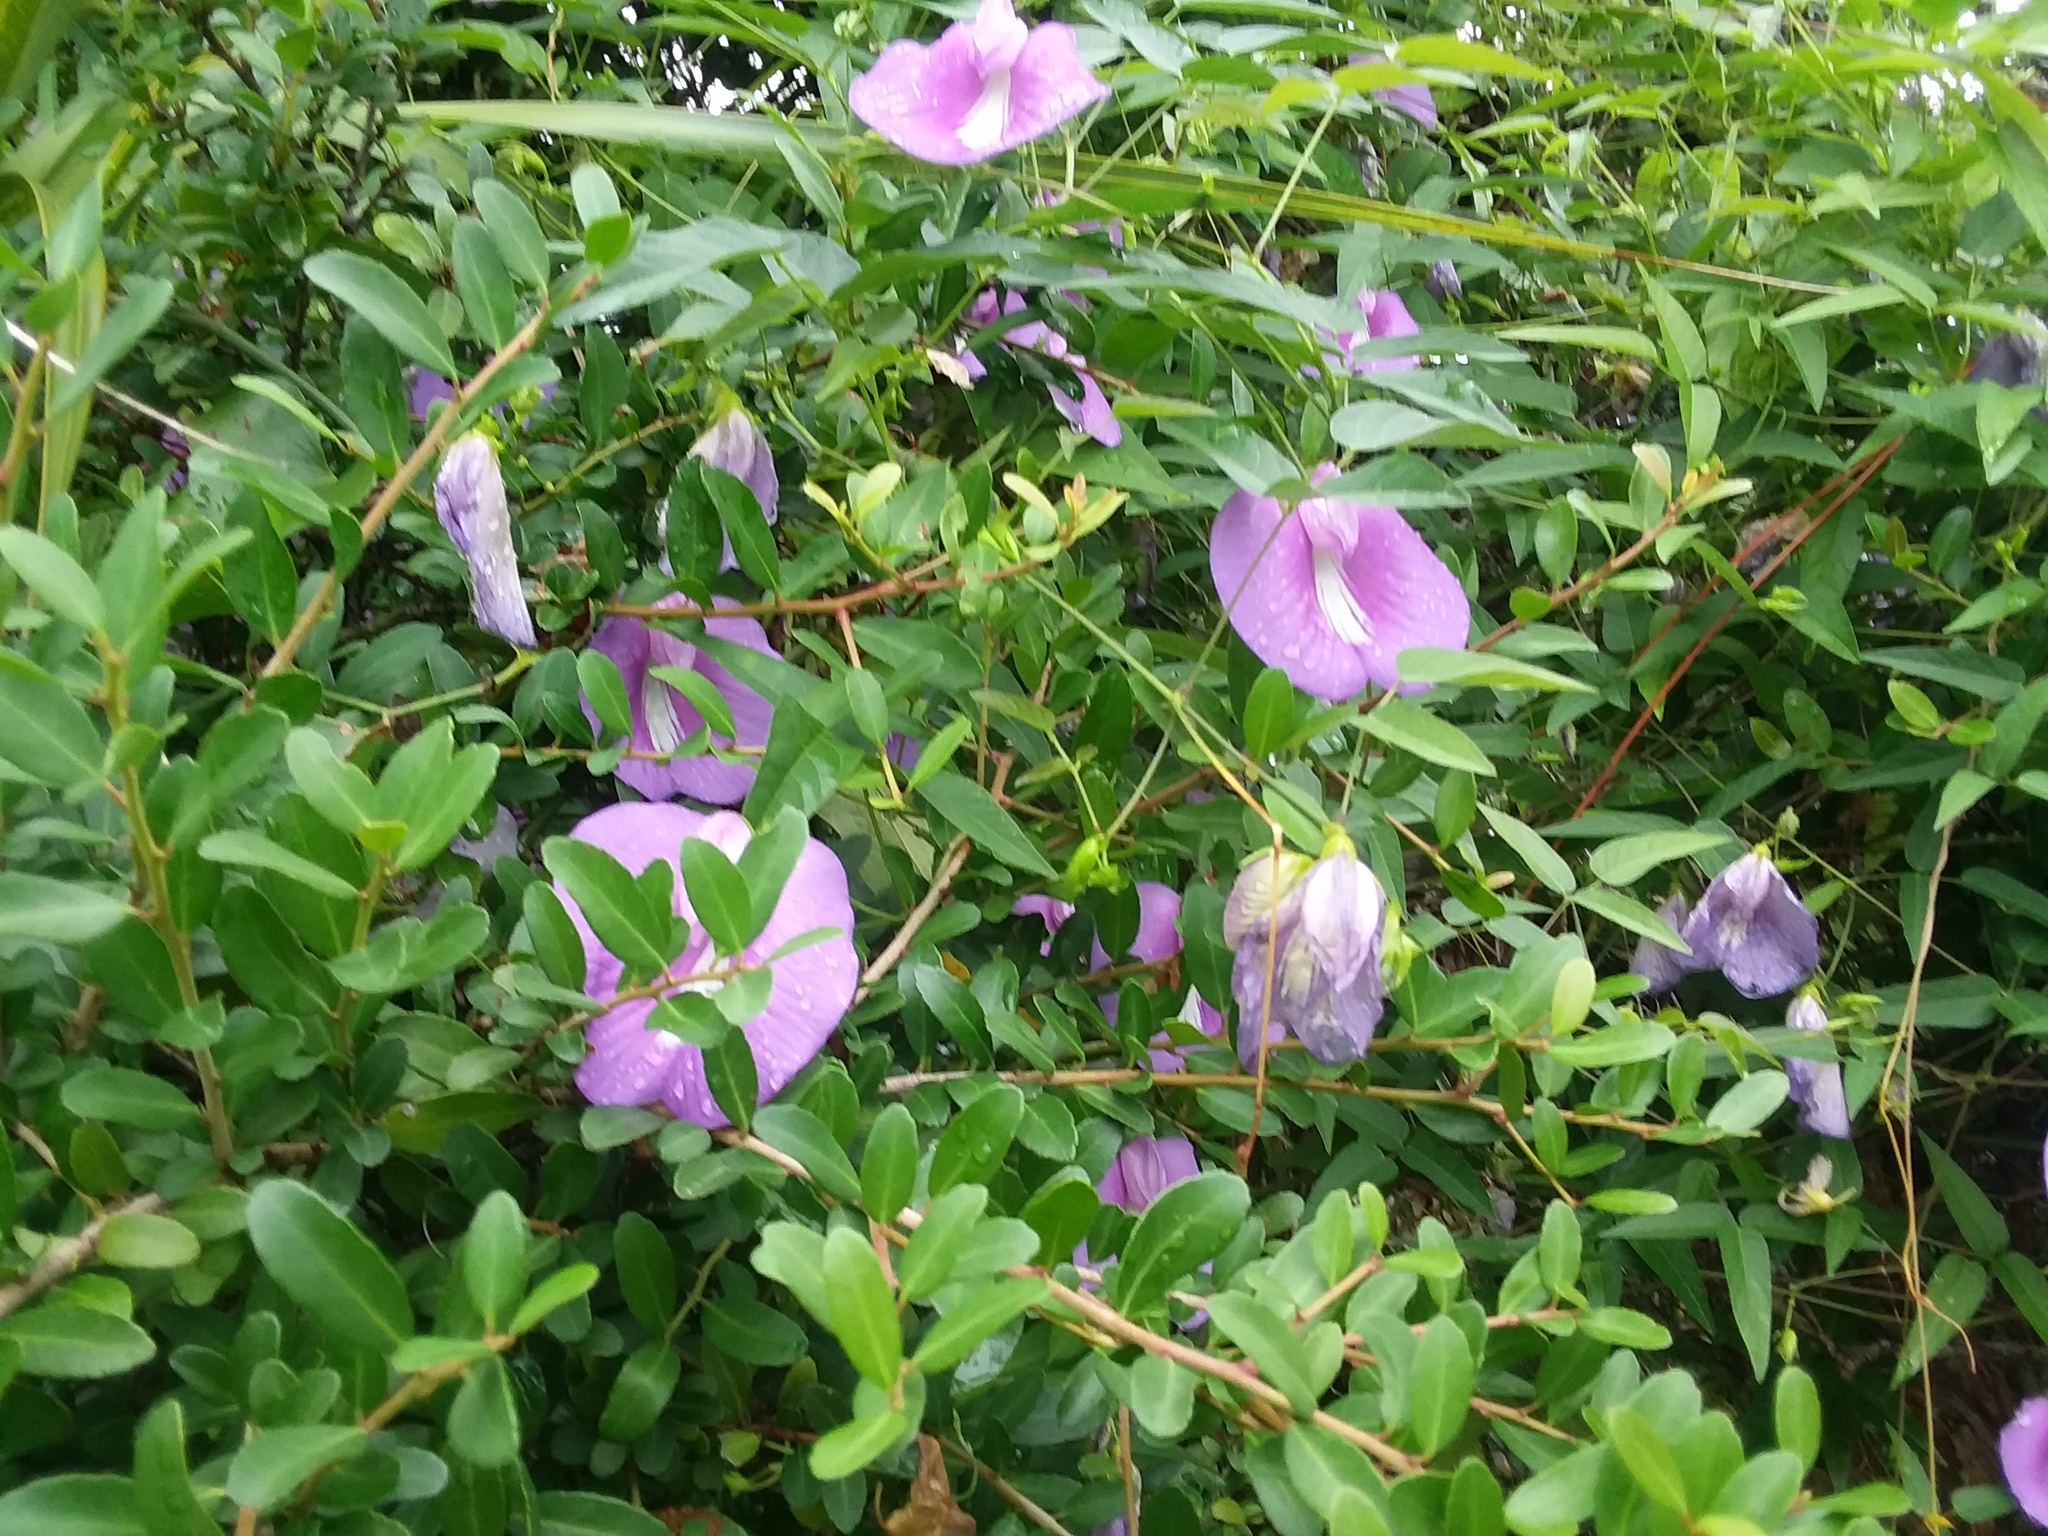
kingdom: Plantae
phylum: Tracheophyta
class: Magnoliopsida
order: Fabales
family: Fabaceae
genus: Centrosema
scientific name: Centrosema virginianum
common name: Butterfly-pea
